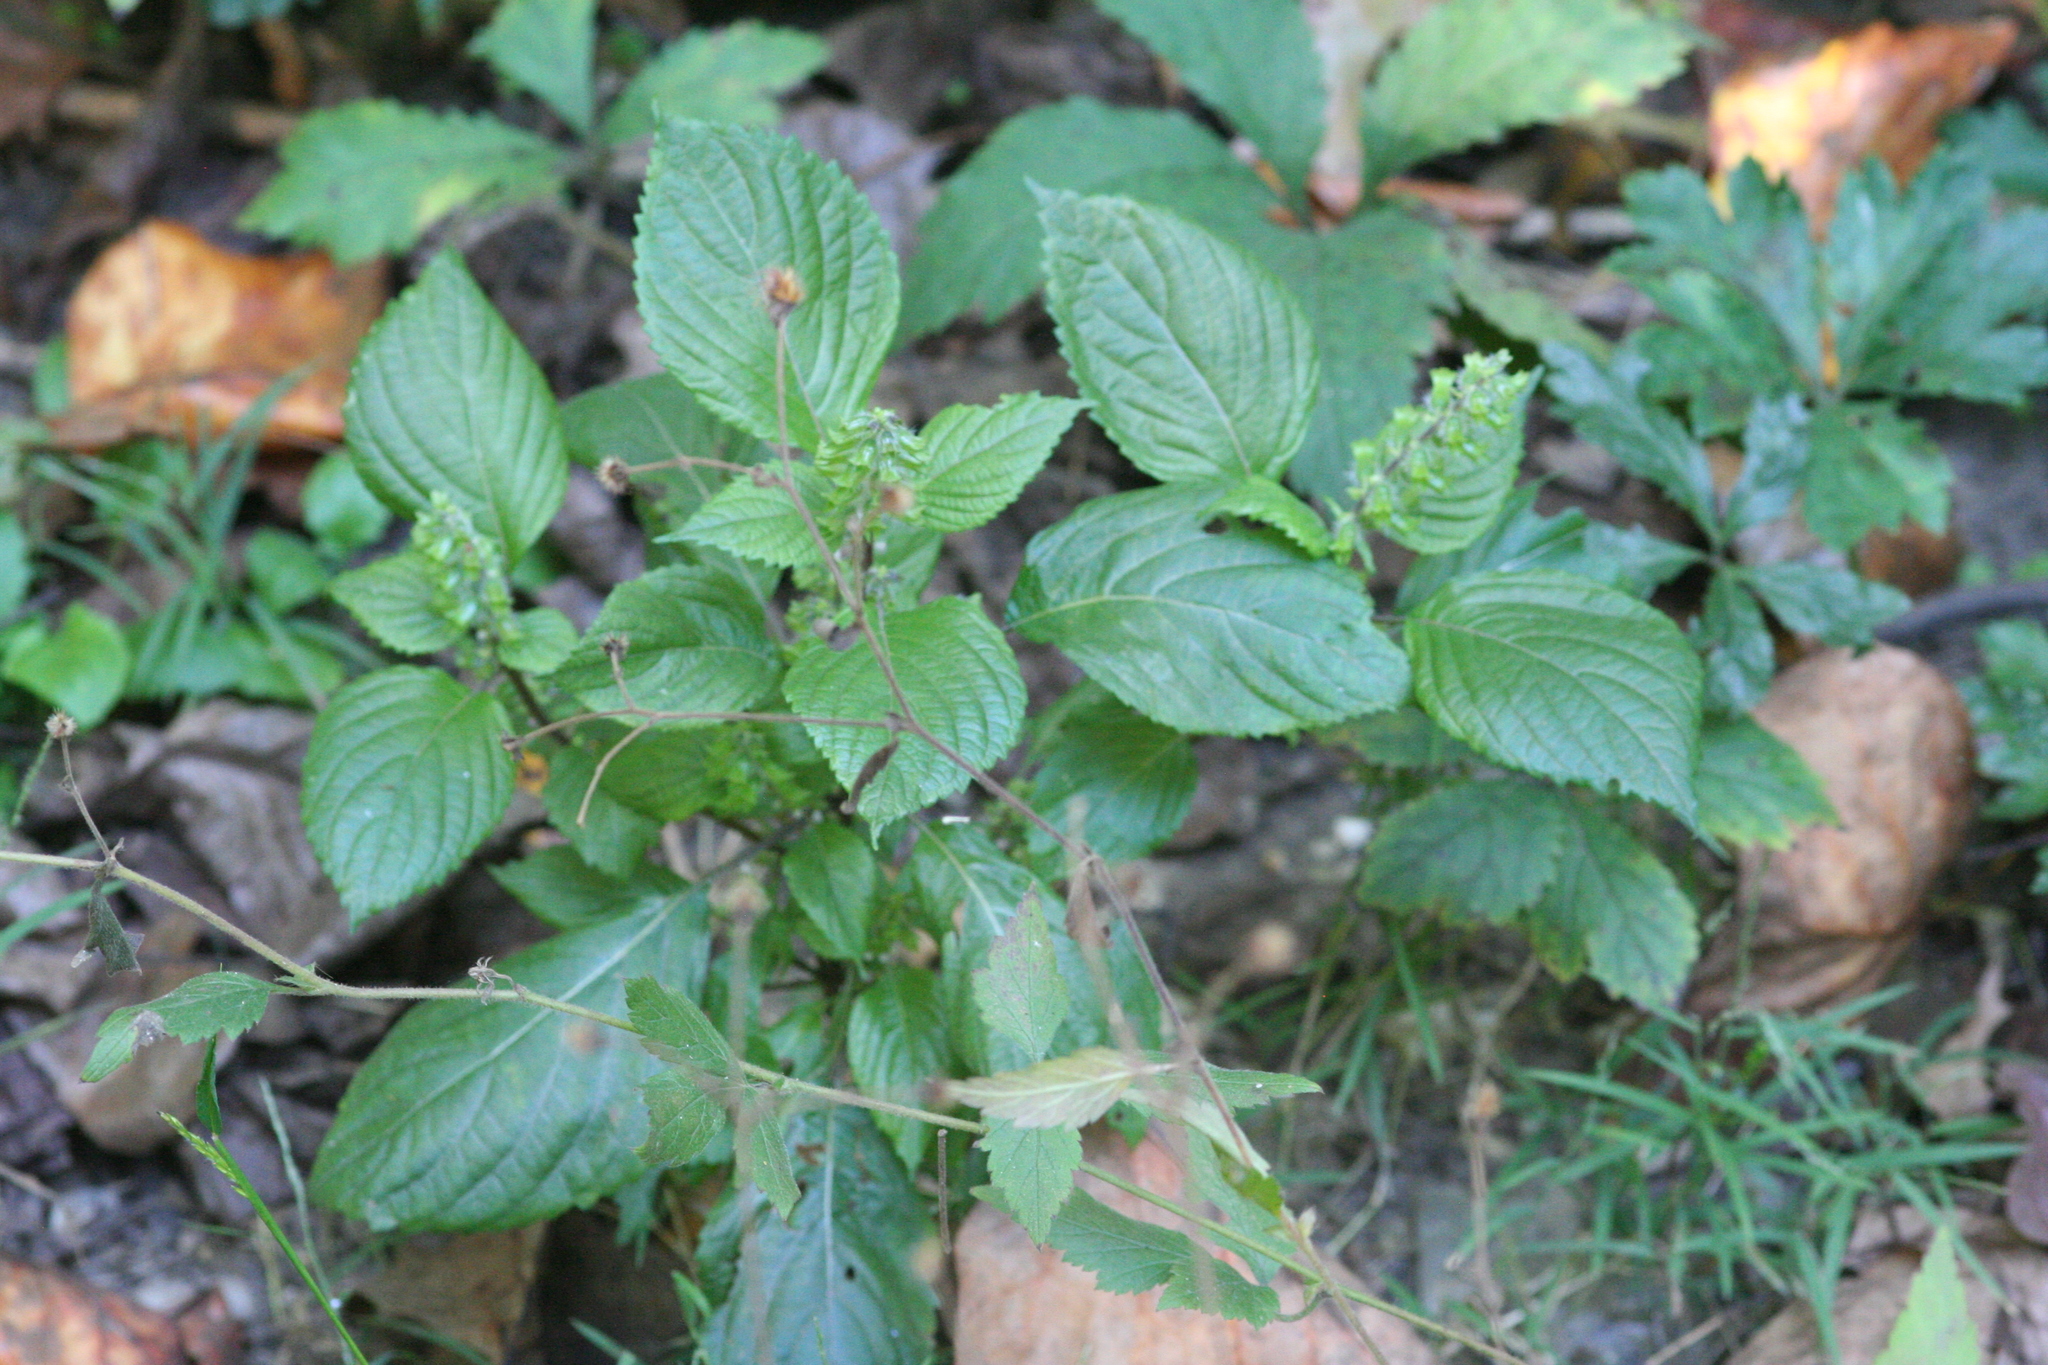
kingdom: Plantae
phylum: Tracheophyta
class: Magnoliopsida
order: Lamiales
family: Lamiaceae
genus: Perilla
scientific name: Perilla frutescens
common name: Perilla
